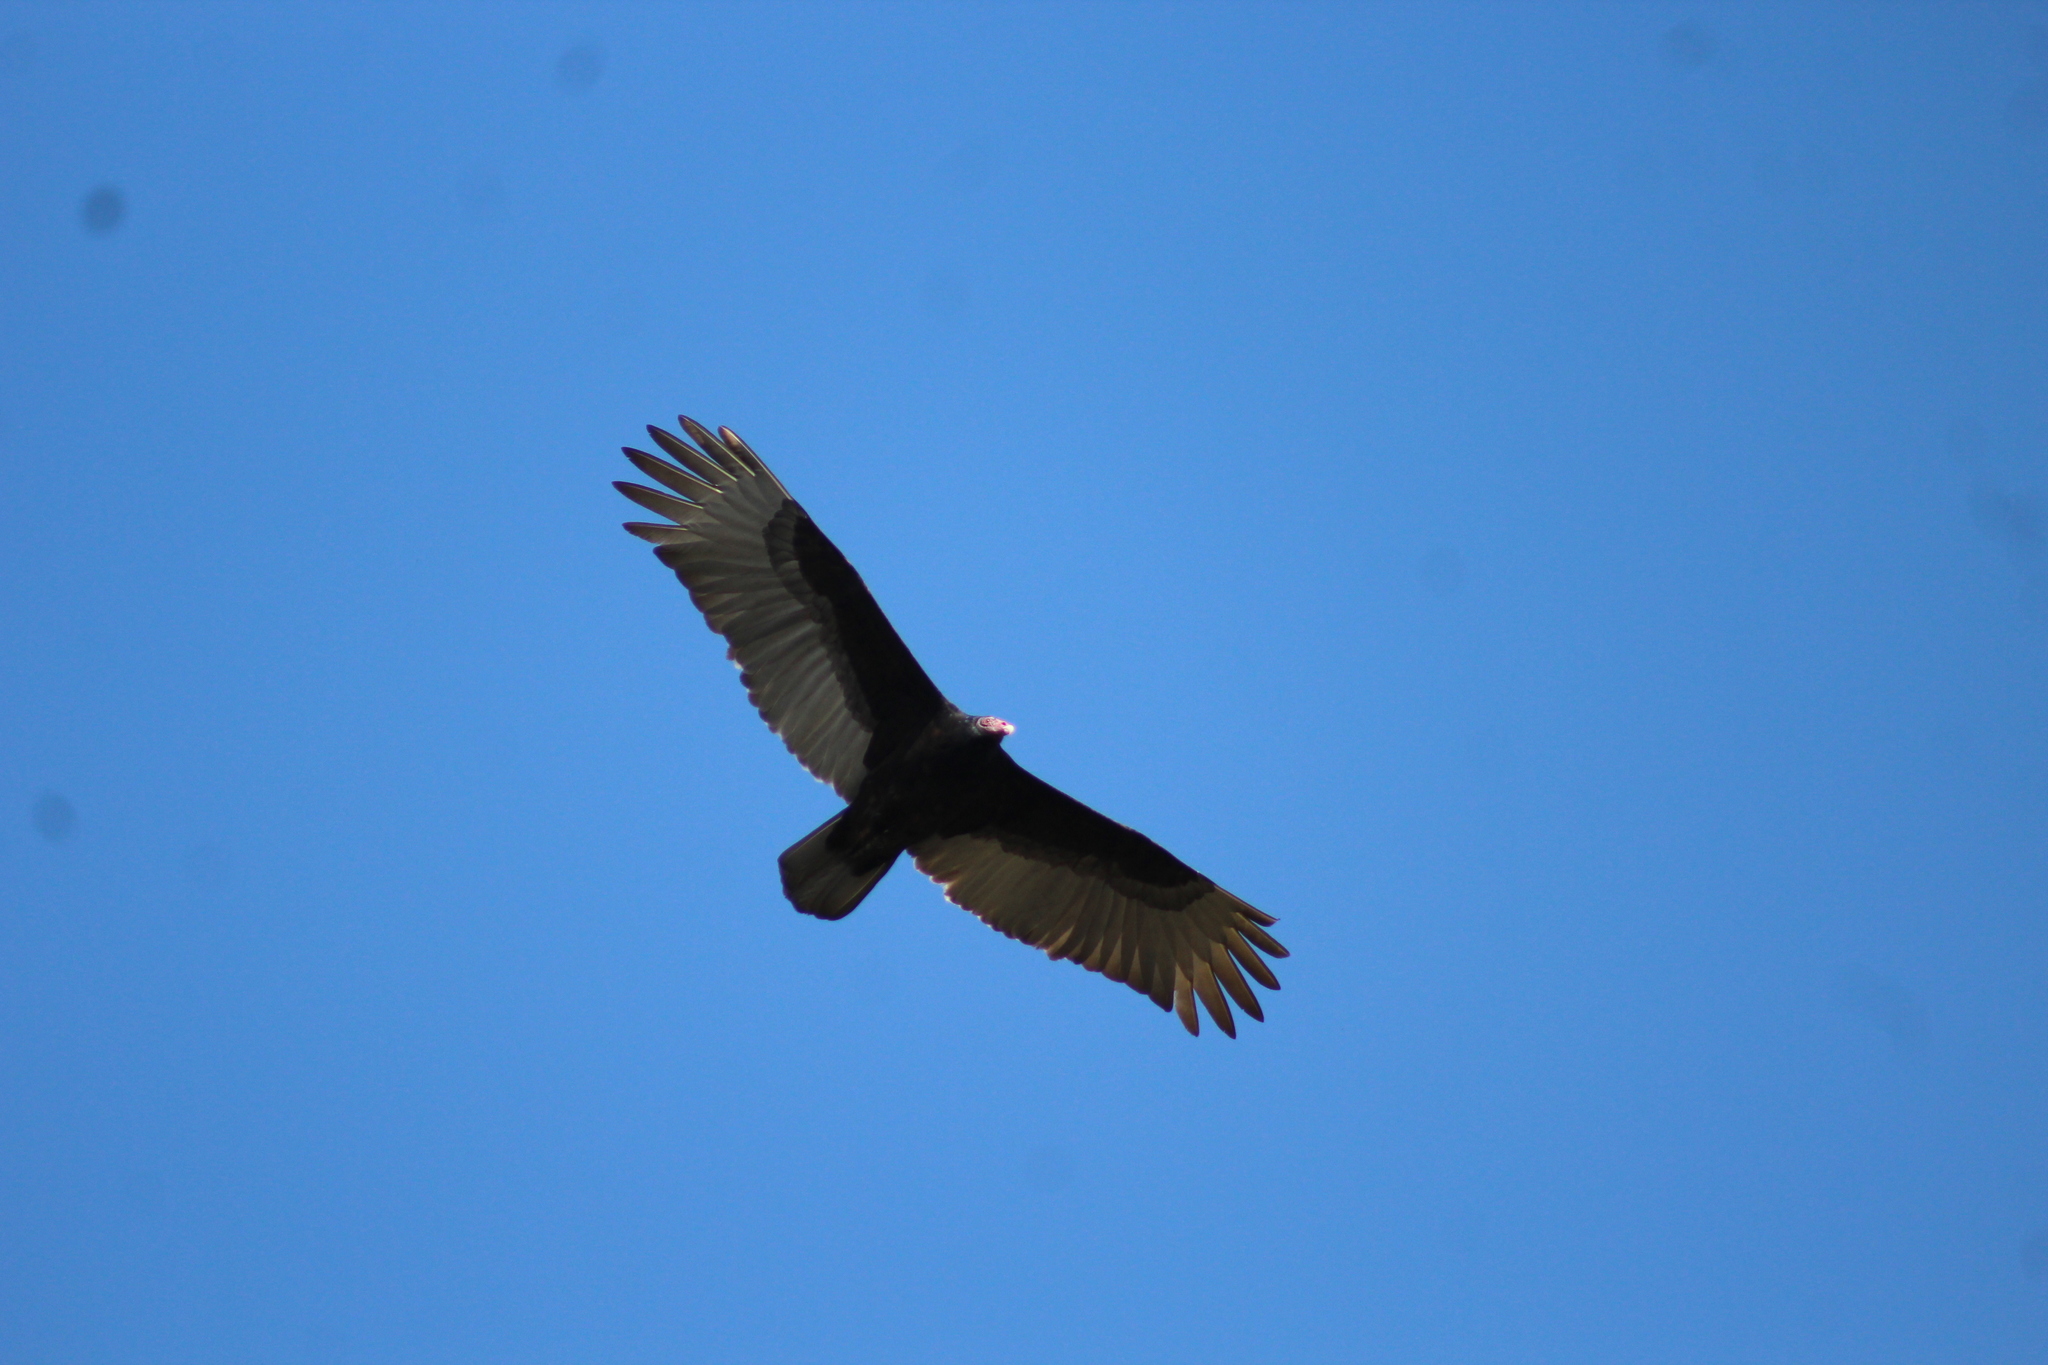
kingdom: Animalia
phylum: Chordata
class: Aves
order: Accipitriformes
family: Cathartidae
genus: Cathartes
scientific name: Cathartes aura
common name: Turkey vulture
